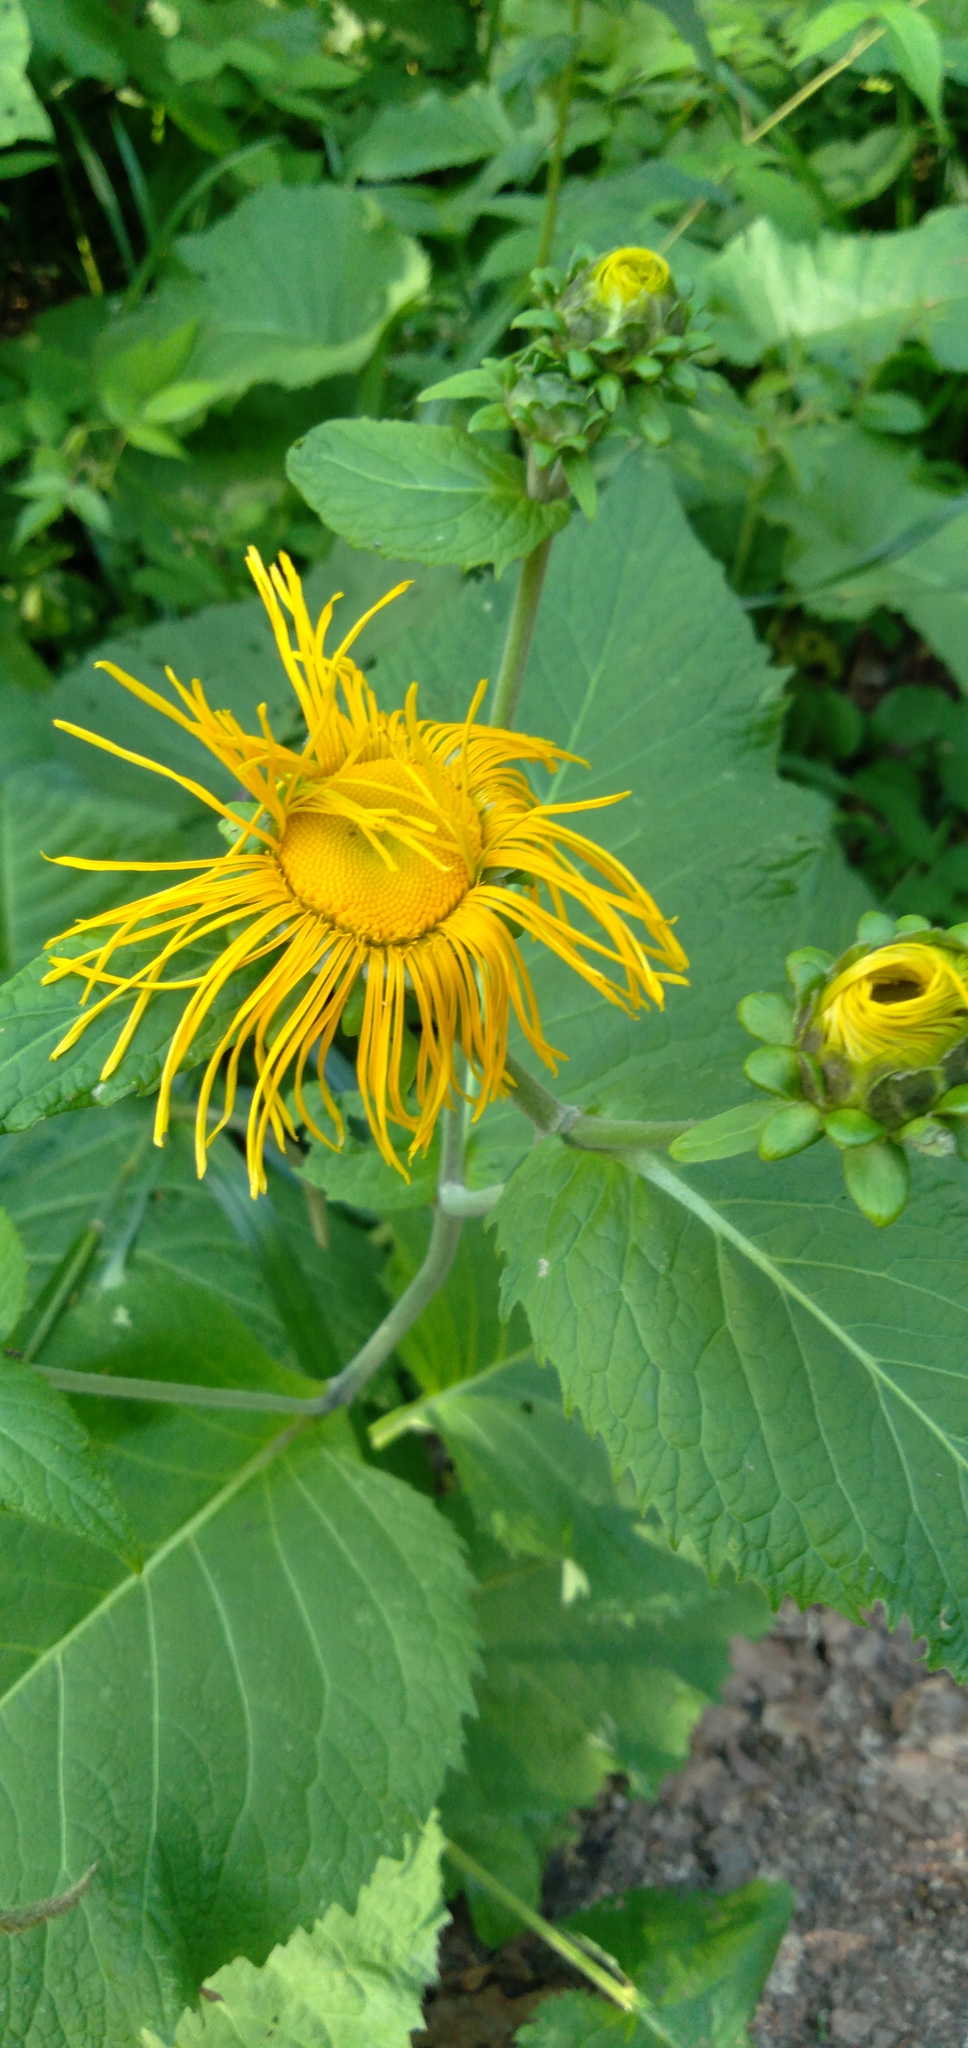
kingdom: Plantae
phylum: Tracheophyta
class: Magnoliopsida
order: Asterales
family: Asteraceae
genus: Telekia
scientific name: Telekia speciosa
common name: Yellow oxeye
